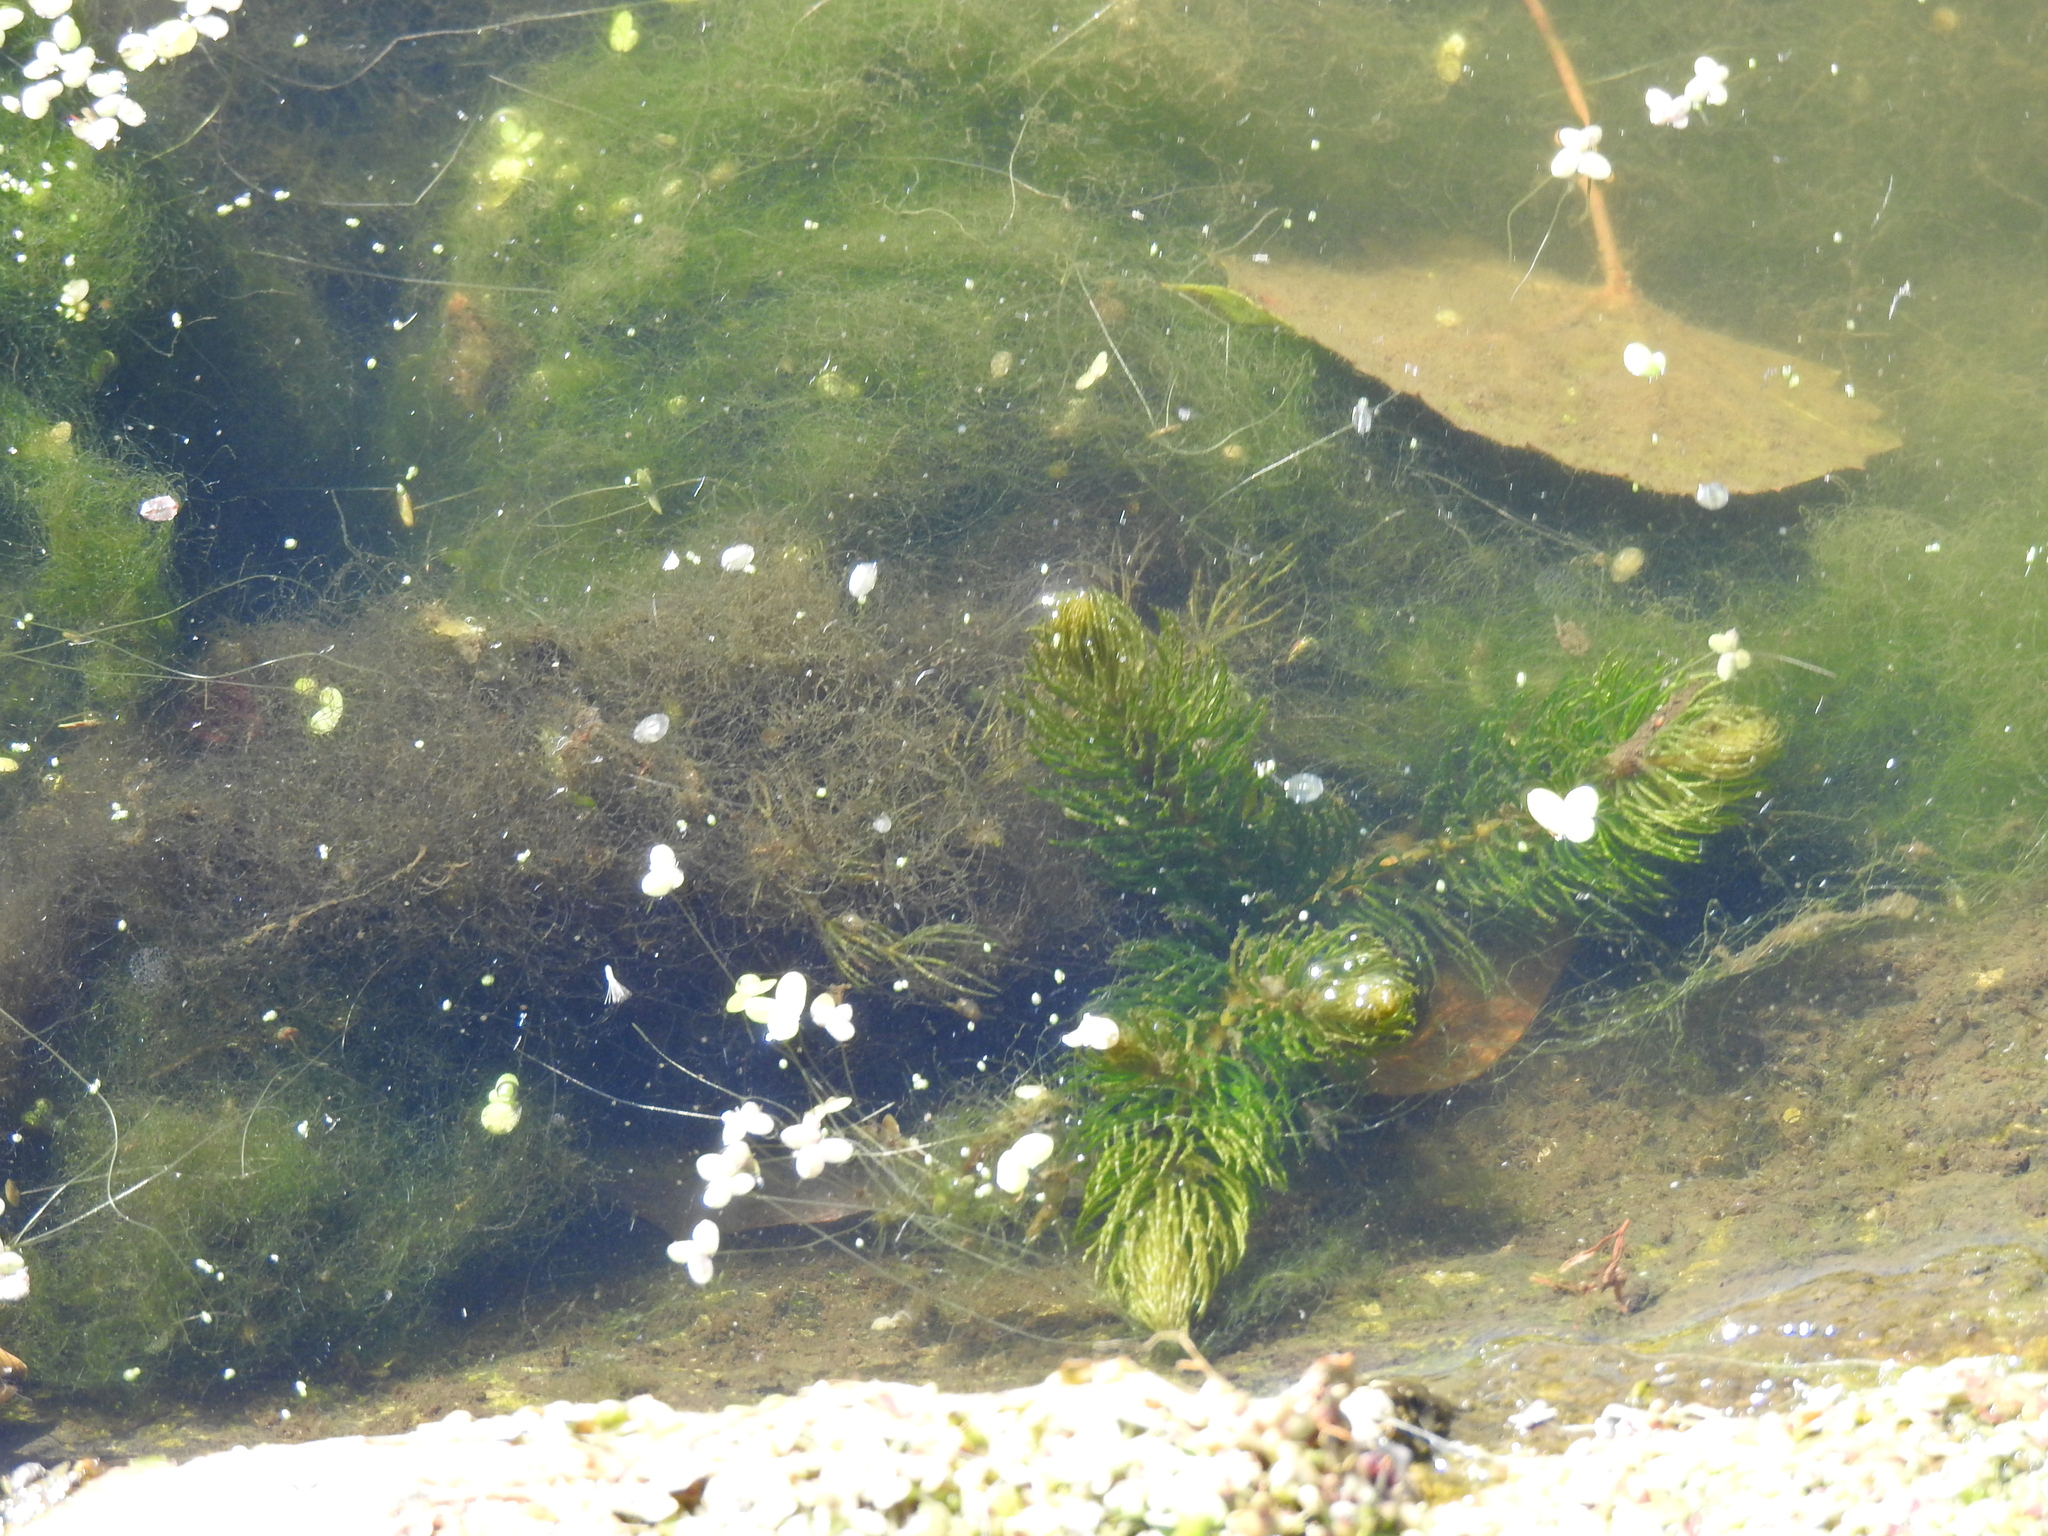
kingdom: Plantae
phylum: Tracheophyta
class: Magnoliopsida
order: Ceratophyllales
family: Ceratophyllaceae
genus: Ceratophyllum
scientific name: Ceratophyllum demersum
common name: Rigid hornwort
